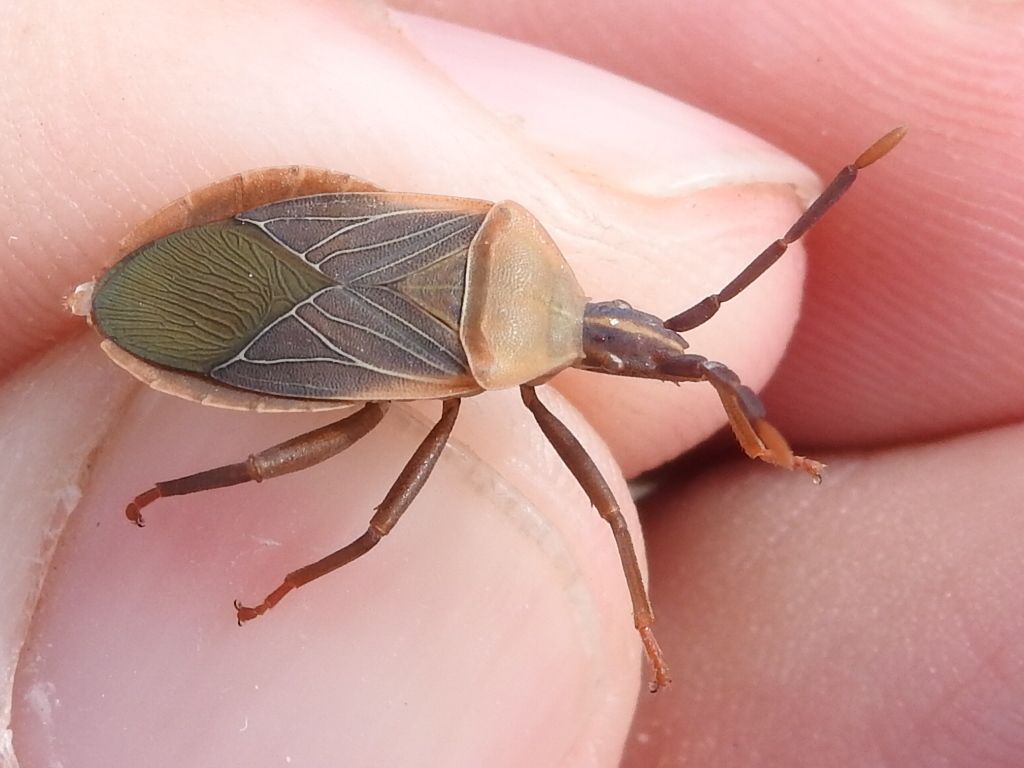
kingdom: Animalia
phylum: Arthropoda
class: Insecta
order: Hemiptera
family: Coreidae
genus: Chelinidea
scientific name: Chelinidea vittiger
